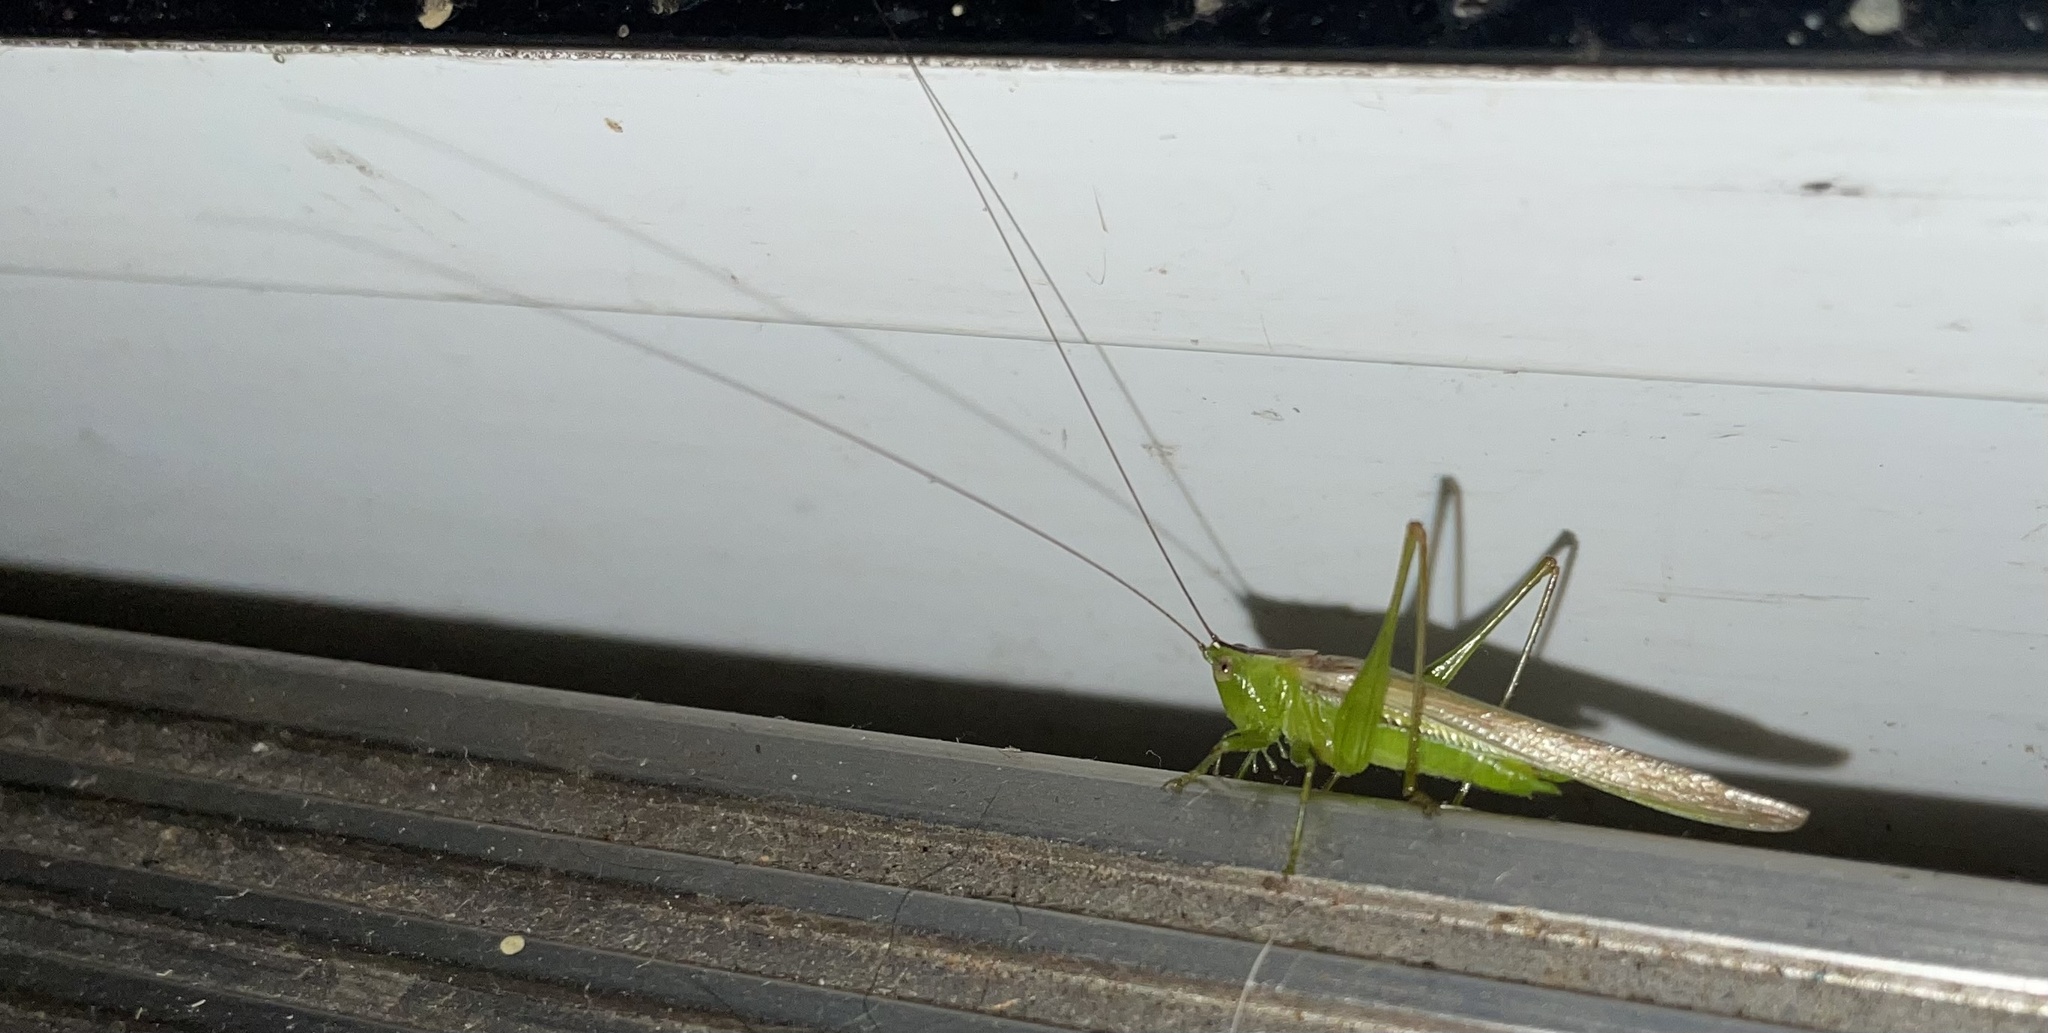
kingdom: Animalia
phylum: Arthropoda
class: Insecta
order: Orthoptera
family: Tettigoniidae
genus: Conocephalus
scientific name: Conocephalus fasciatus
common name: Slender meadow katydid
